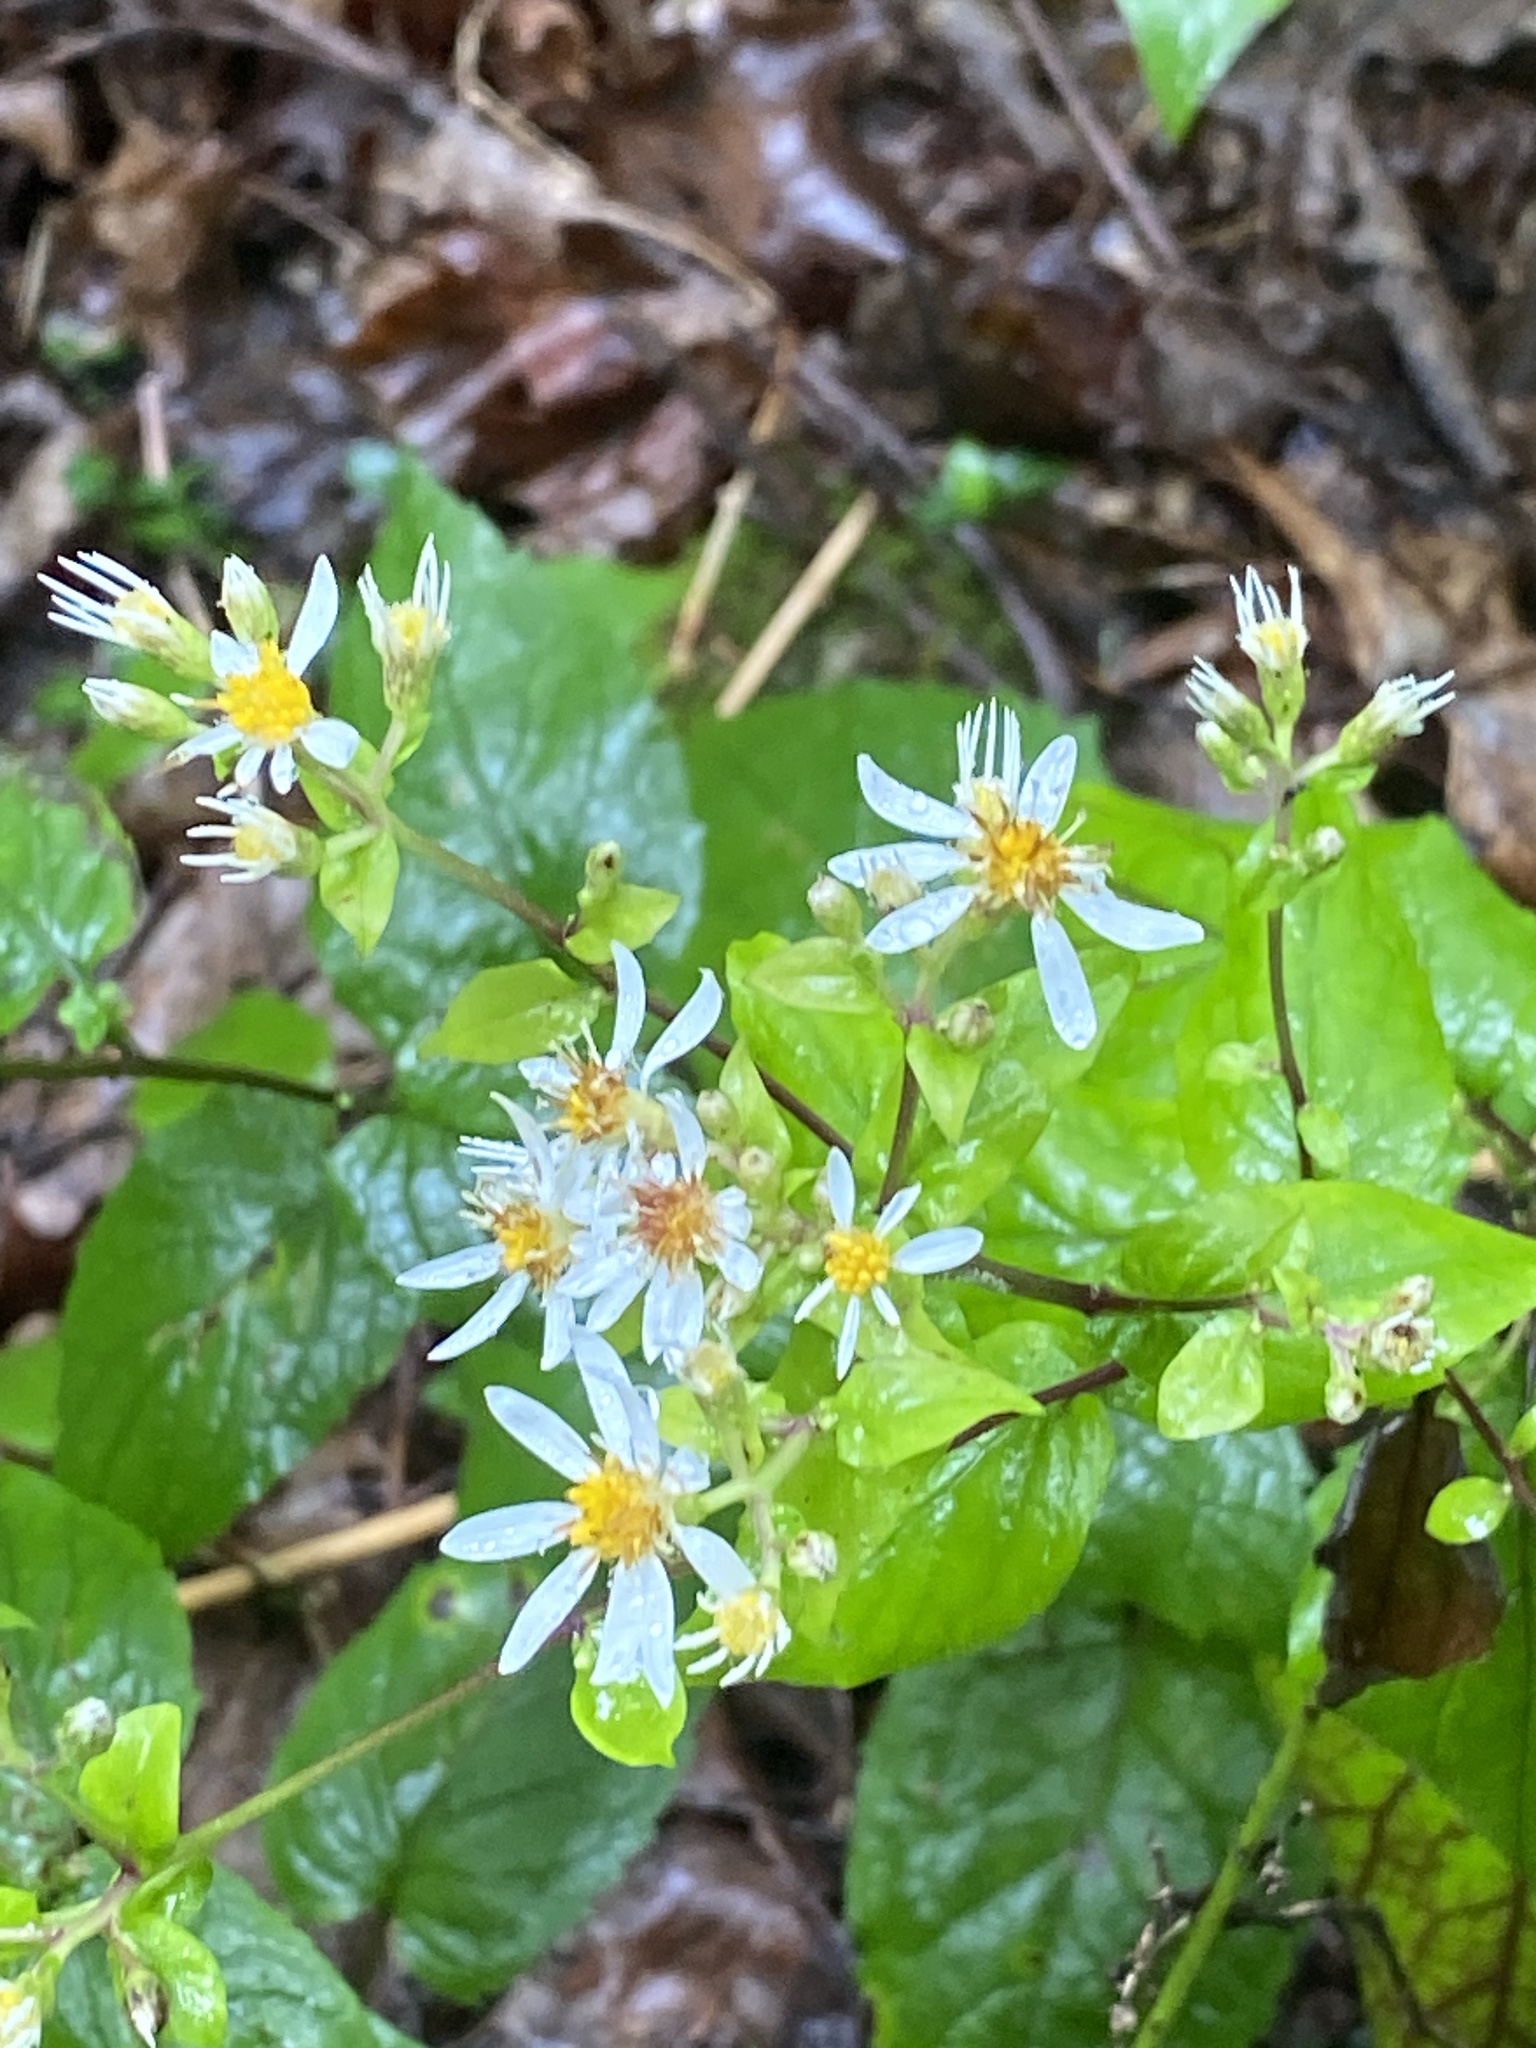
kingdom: Plantae
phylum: Tracheophyta
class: Magnoliopsida
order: Asterales
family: Asteraceae
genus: Eurybia
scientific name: Eurybia divaricata
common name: White wood aster
